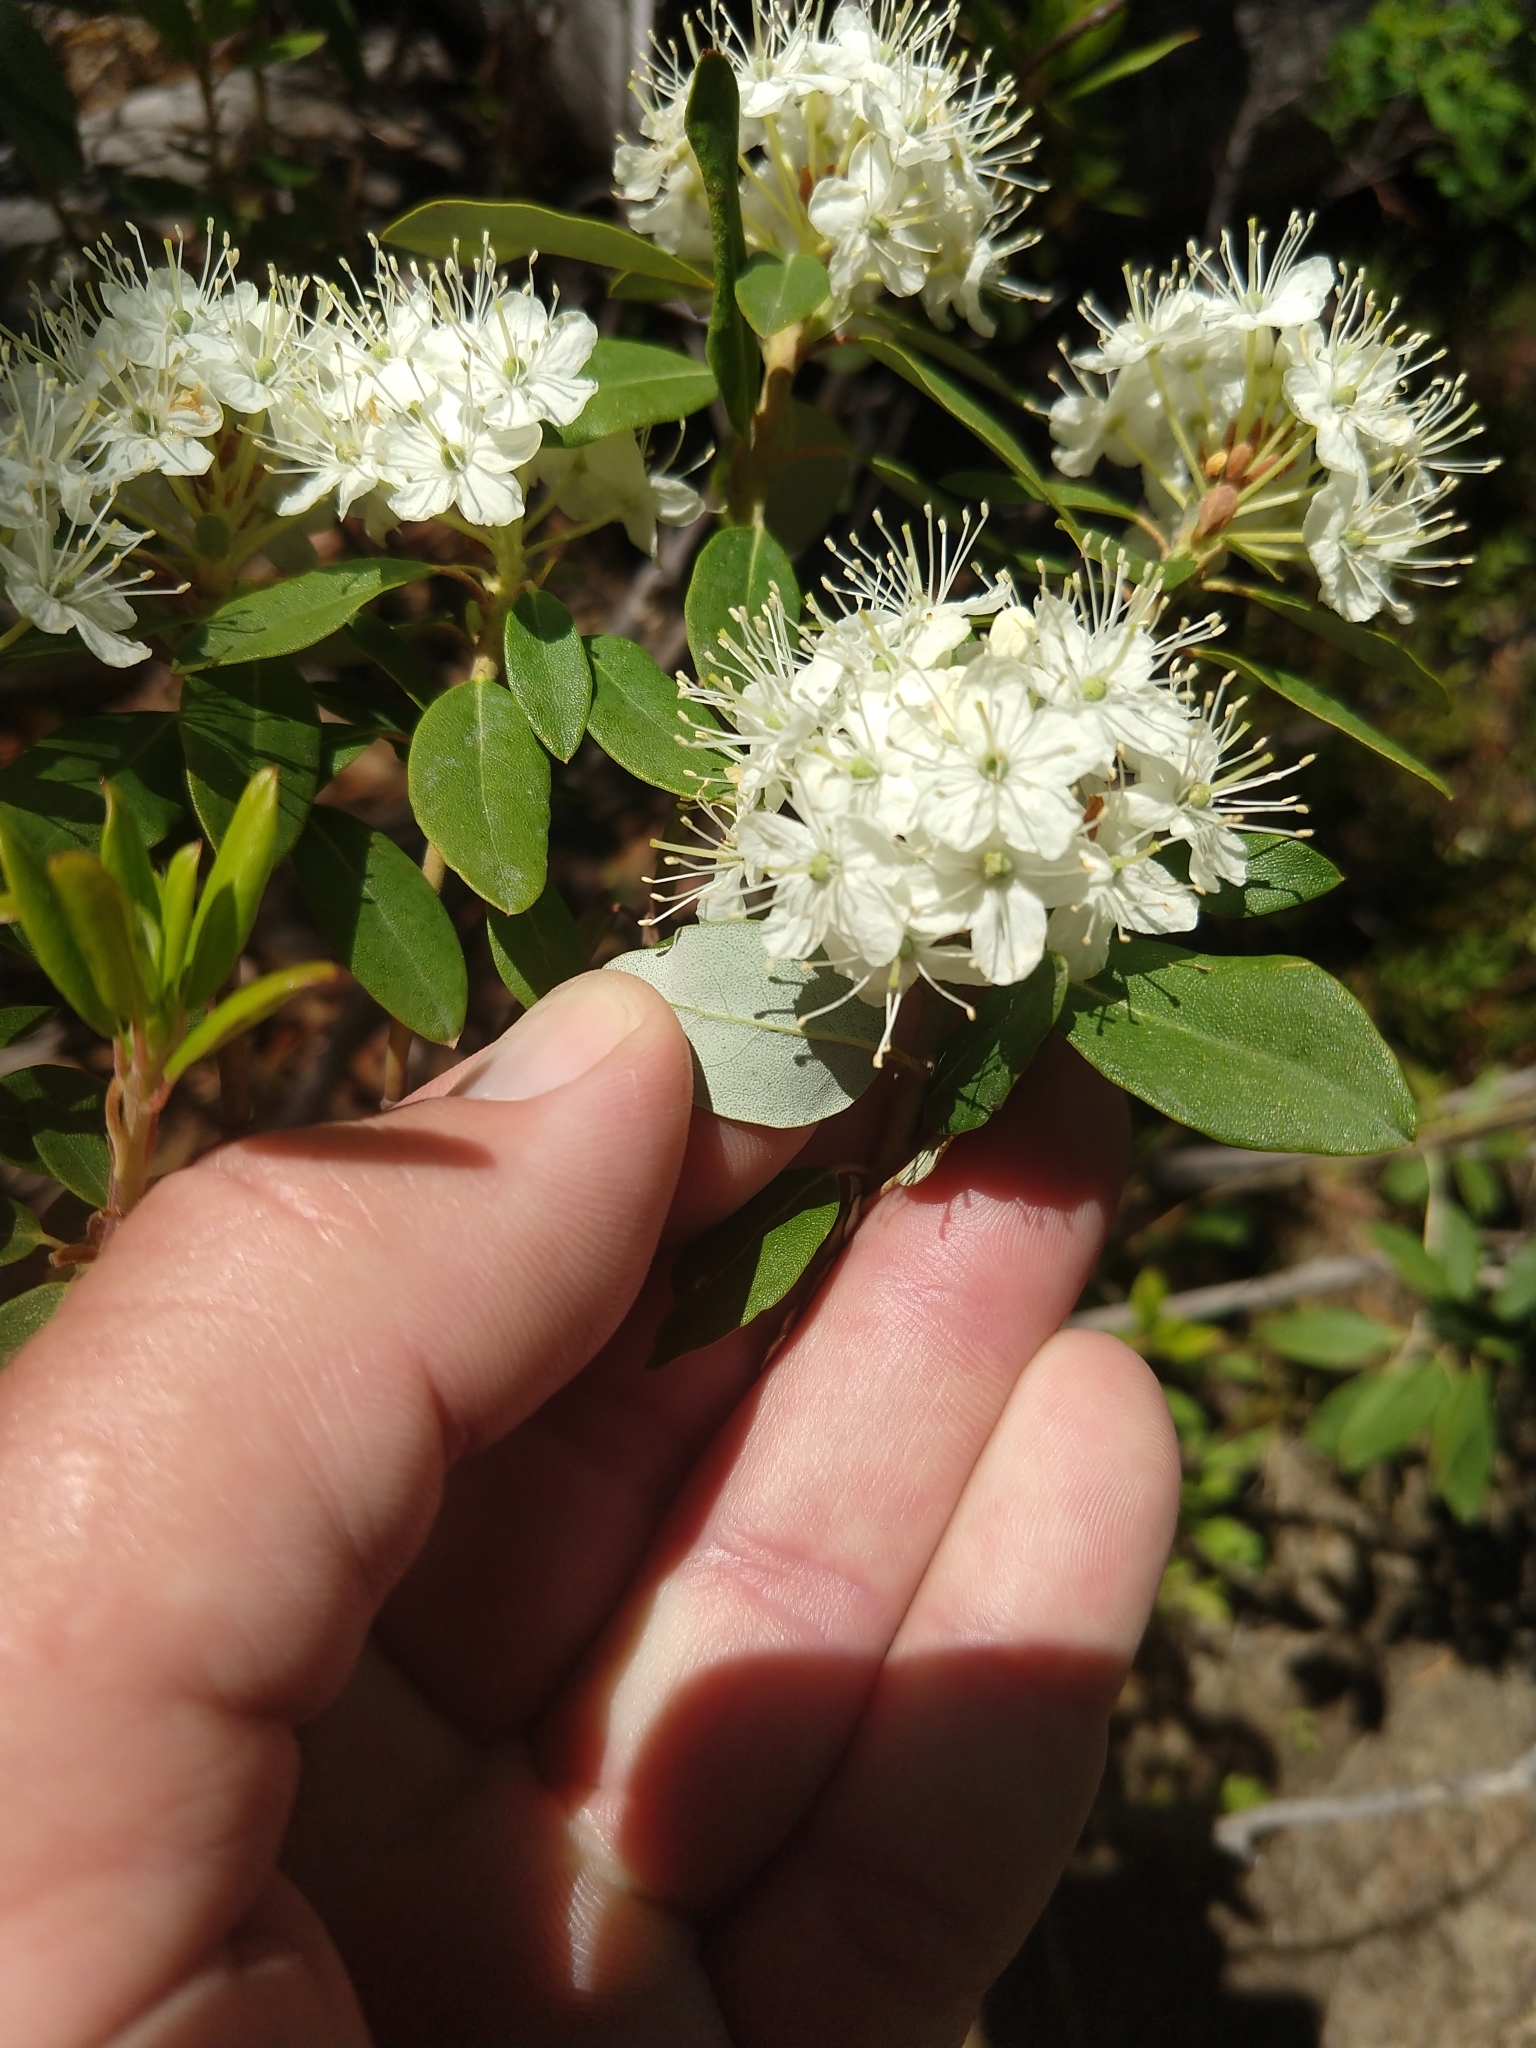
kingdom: Plantae
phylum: Tracheophyta
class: Magnoliopsida
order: Ericales
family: Ericaceae
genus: Rhododendron
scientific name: Rhododendron columbianum
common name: Western labrador tea
